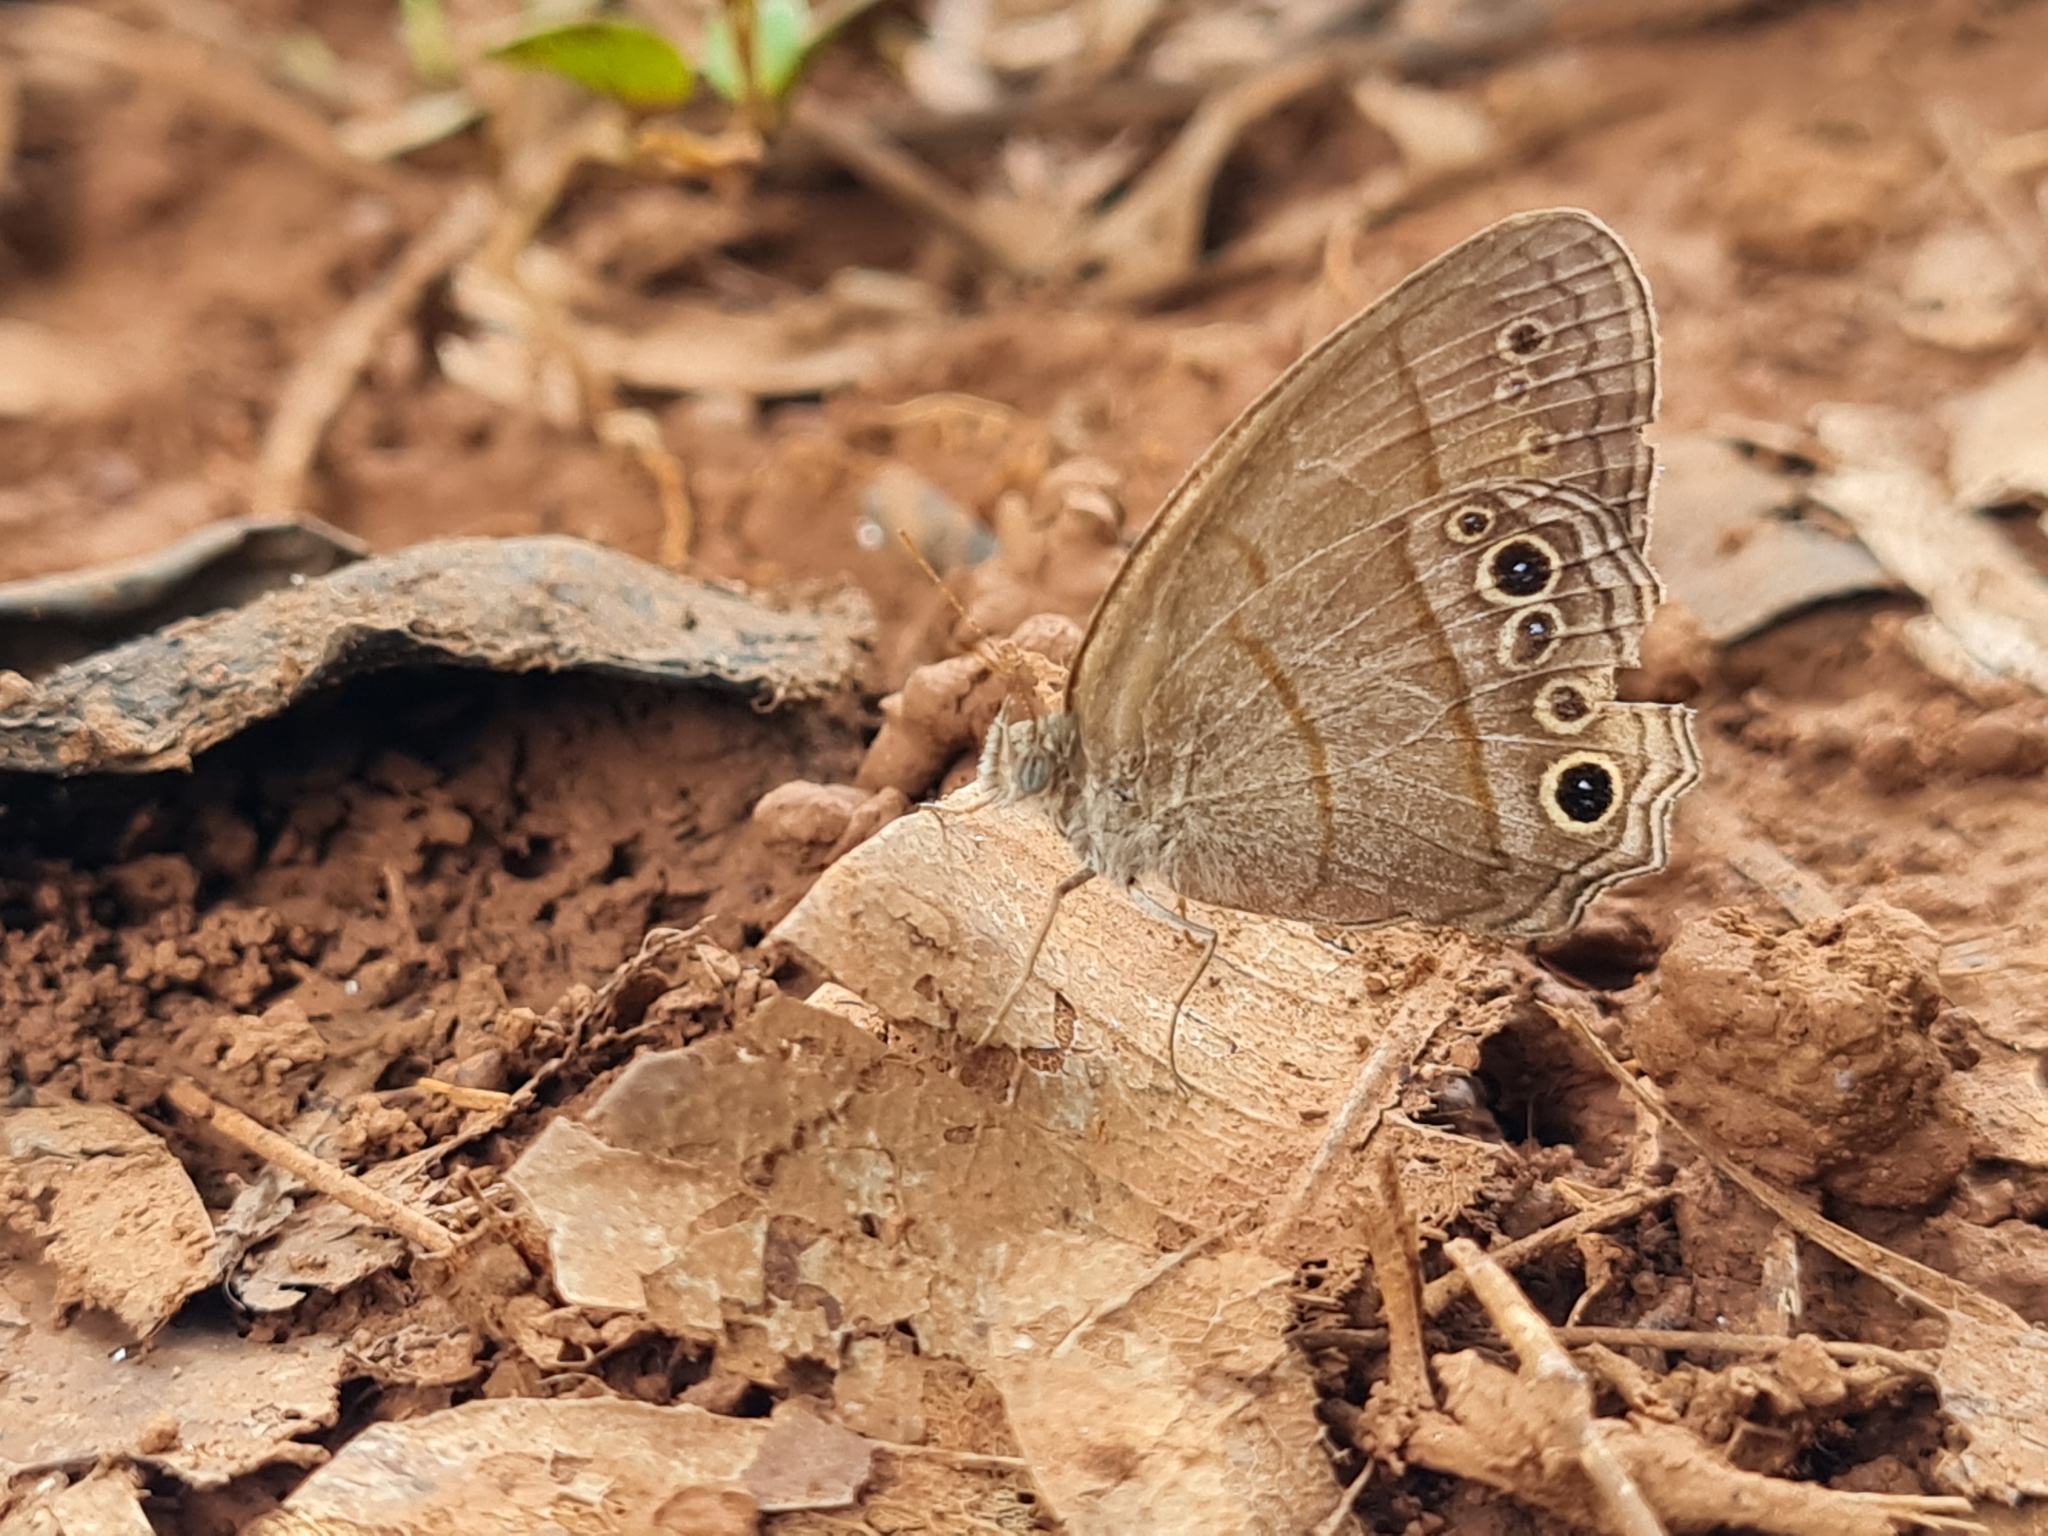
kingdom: Animalia
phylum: Arthropoda
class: Insecta
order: Lepidoptera
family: Nymphalidae
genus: Vareuptychia
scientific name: Vareuptychia similis
